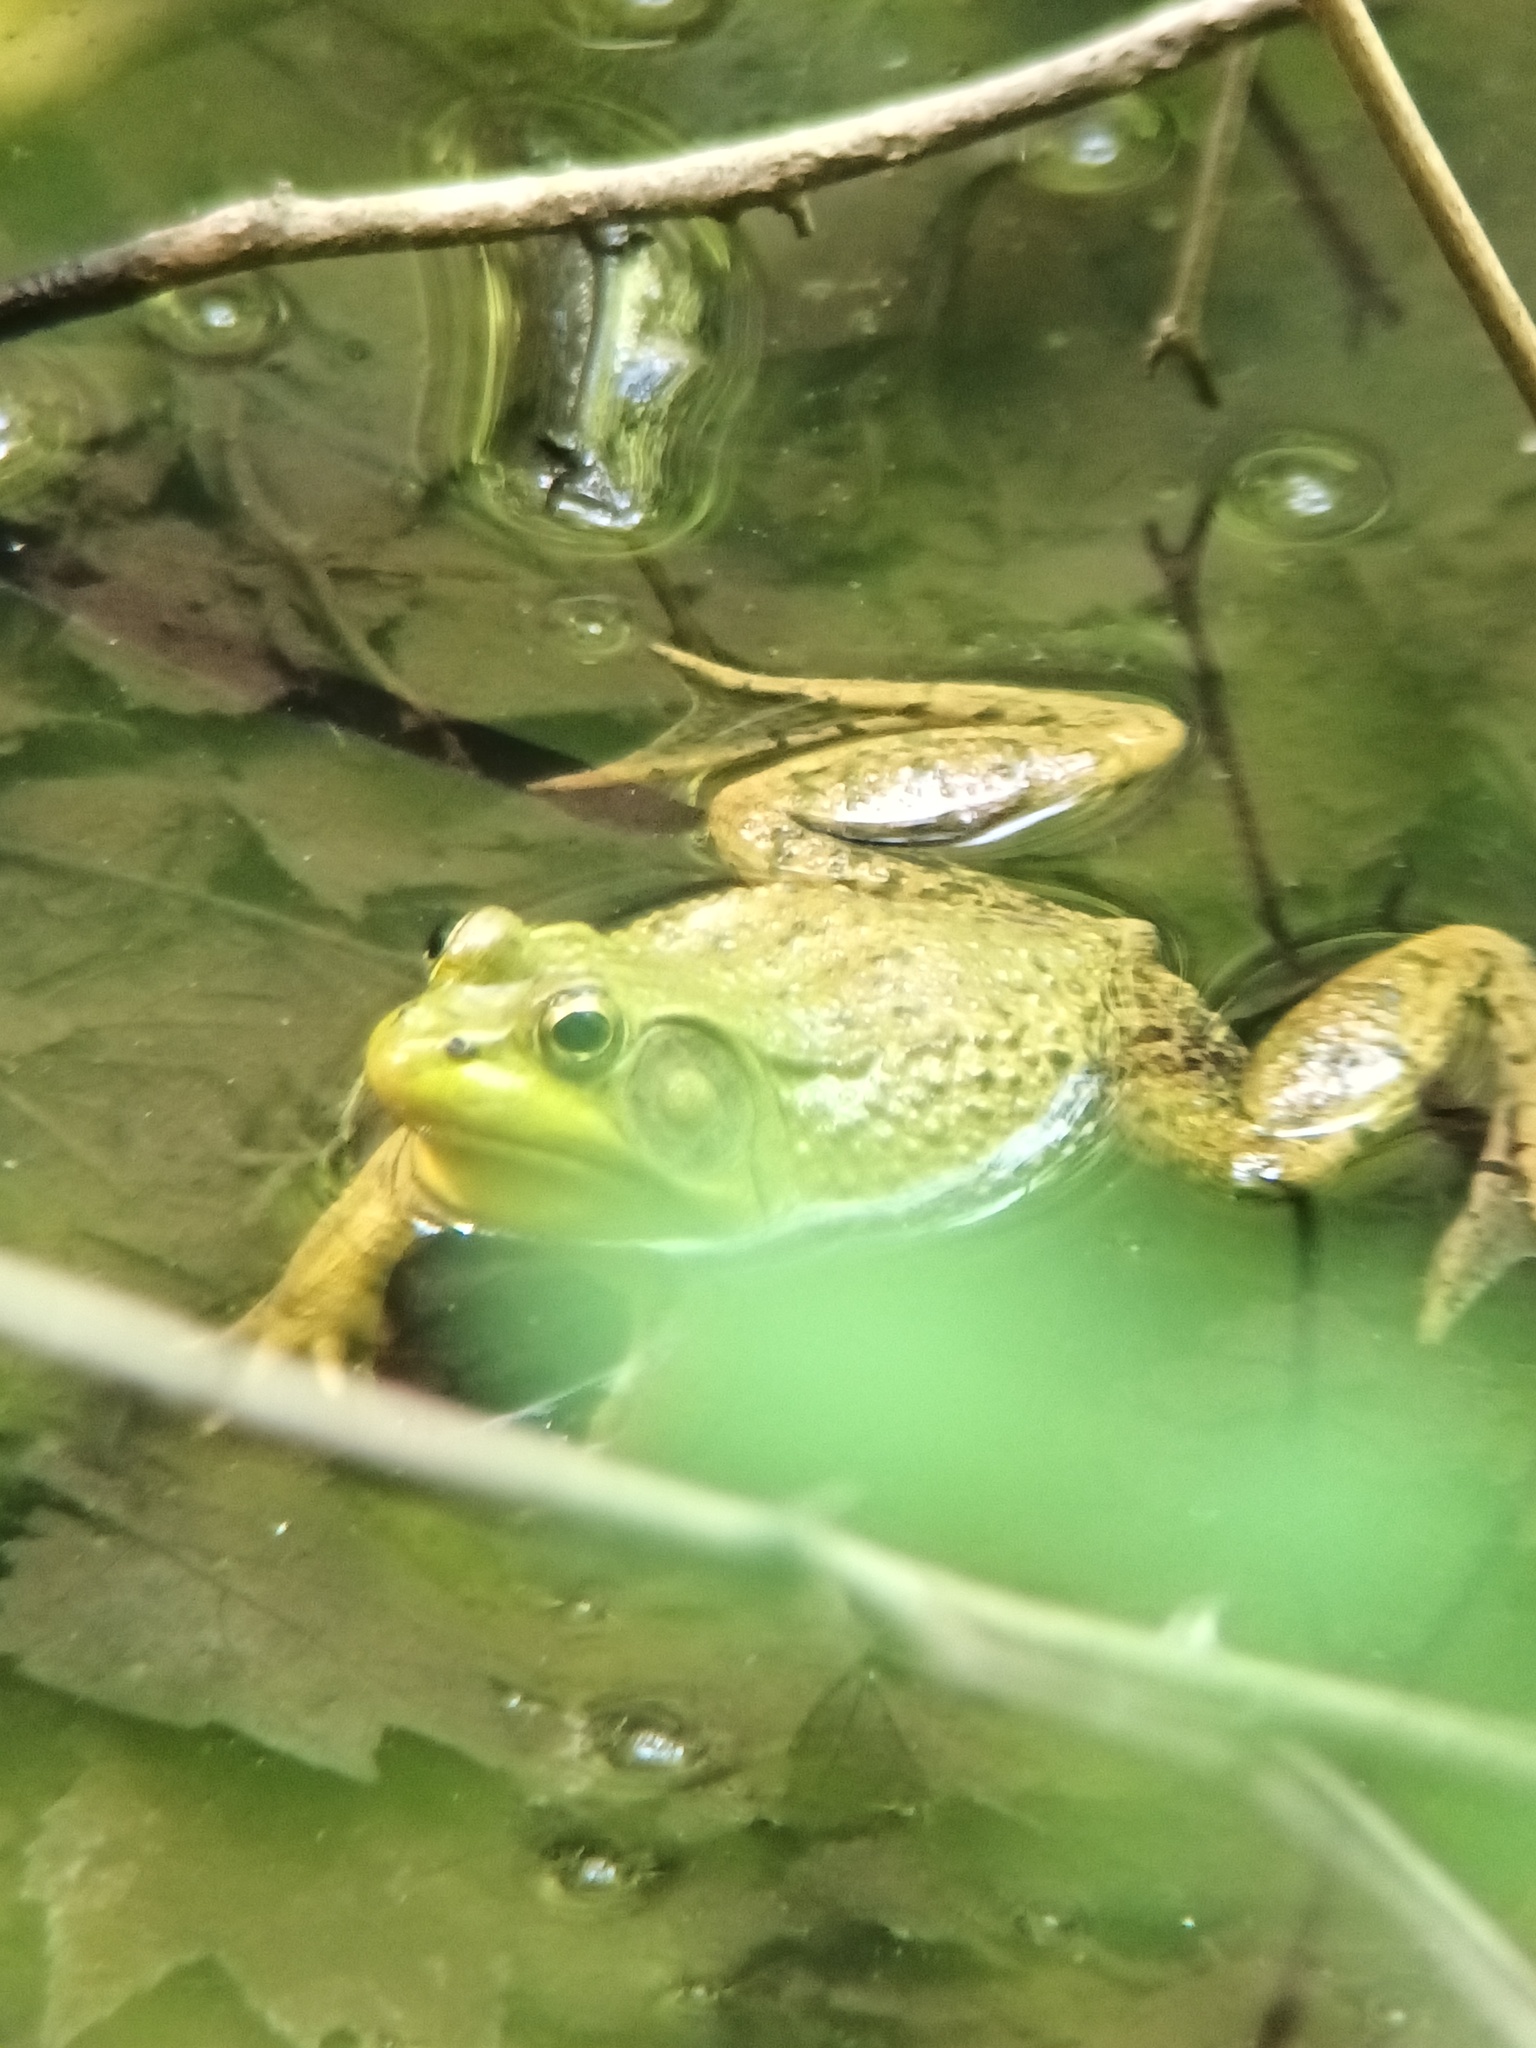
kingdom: Animalia
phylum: Chordata
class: Amphibia
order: Anura
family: Ranidae
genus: Lithobates
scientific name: Lithobates clamitans
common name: Green frog
